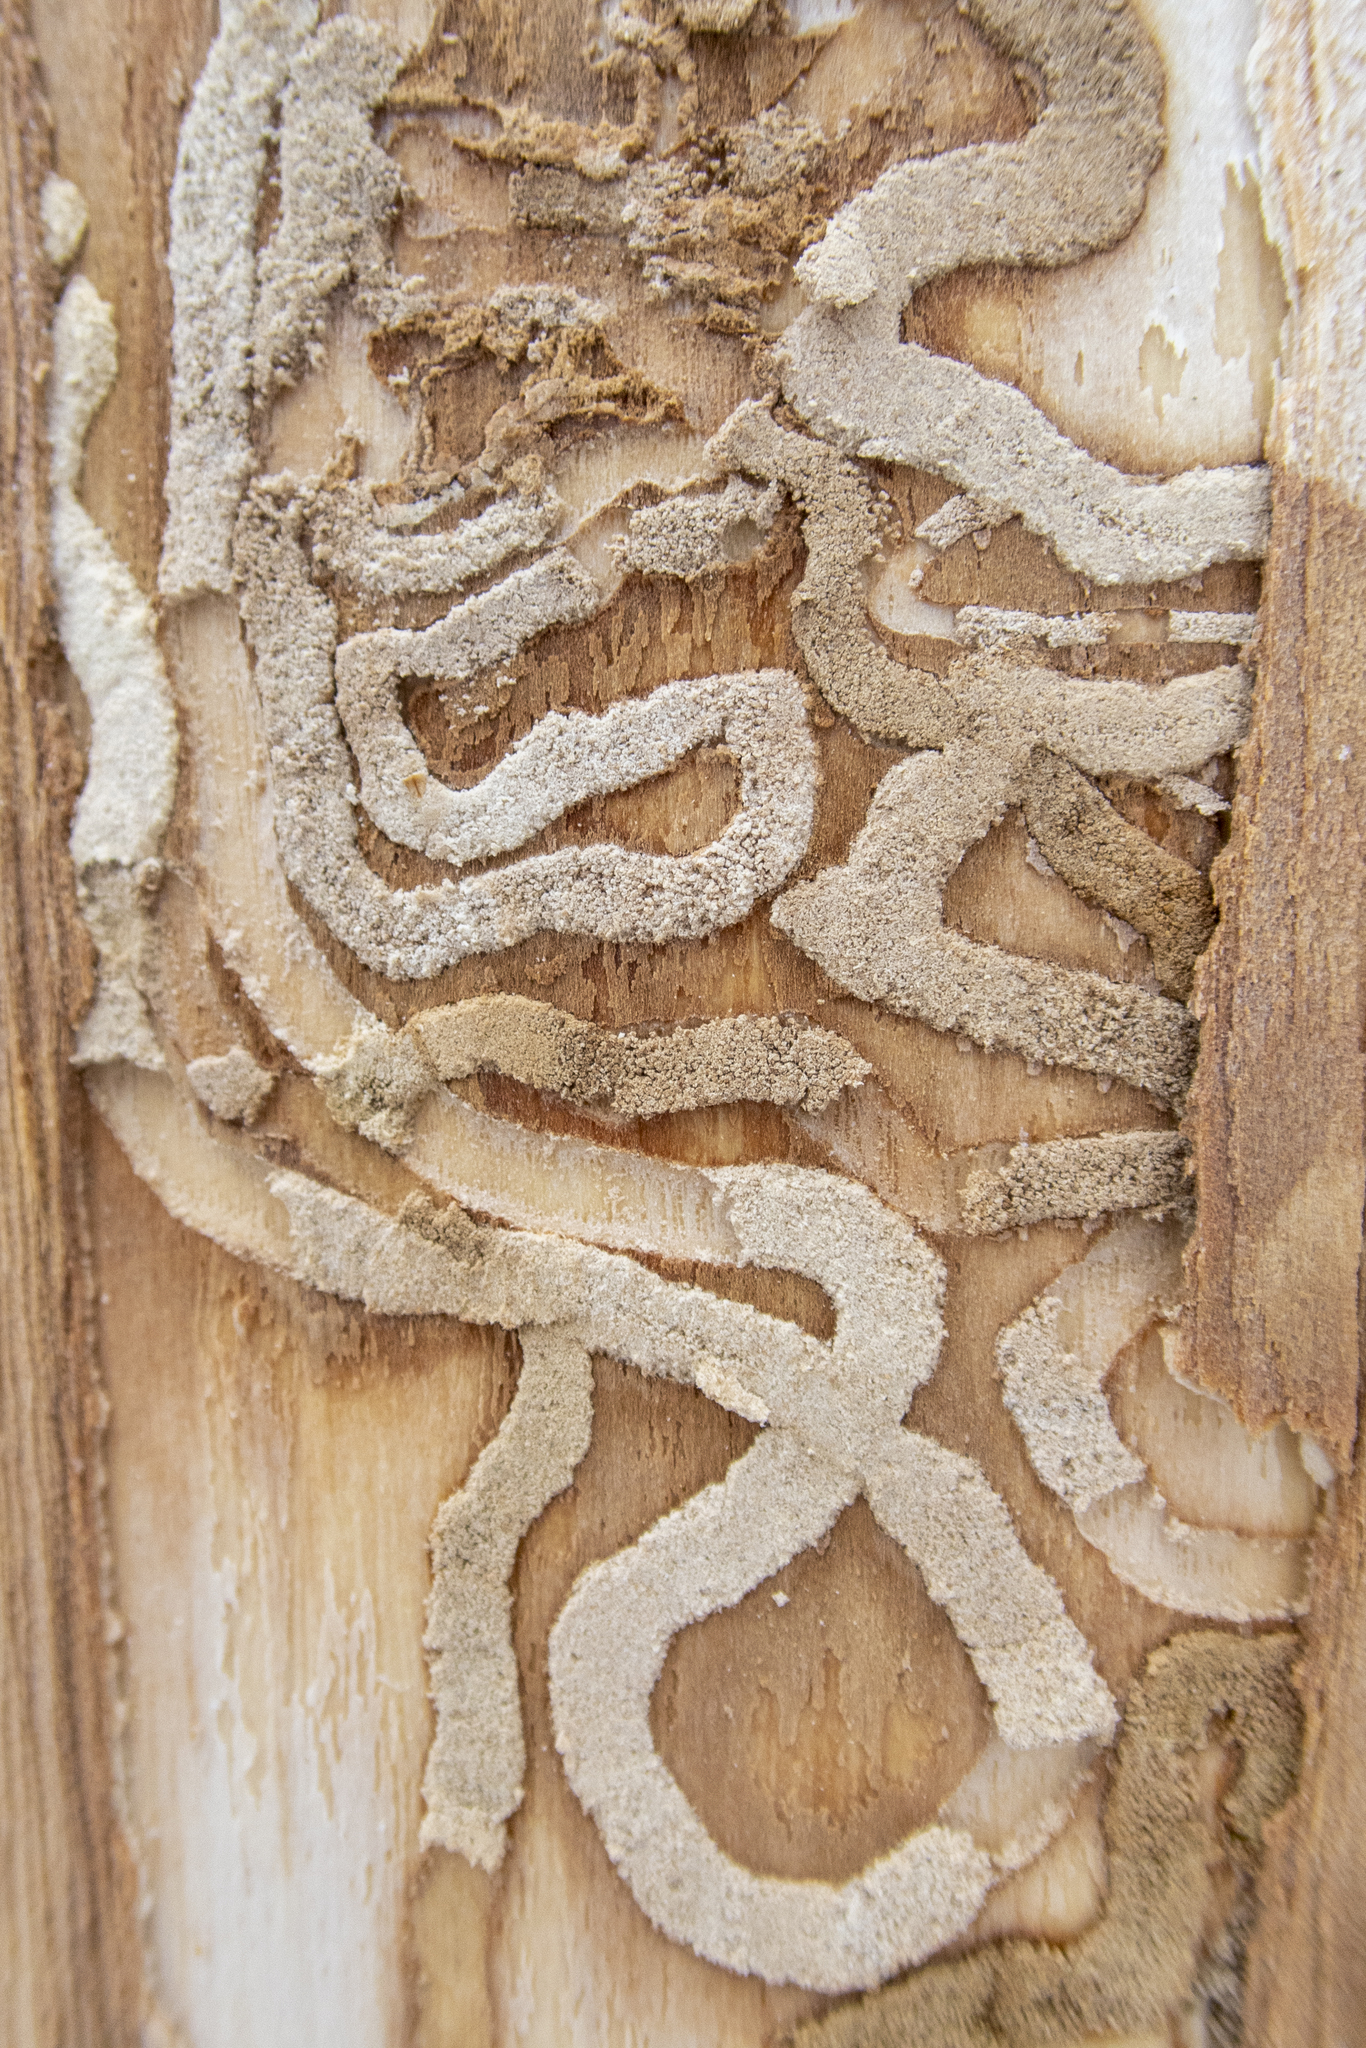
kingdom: Animalia
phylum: Arthropoda
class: Insecta
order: Coleoptera
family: Buprestidae
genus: Agrilus
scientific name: Agrilus planipennis
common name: Emerald ash borer
